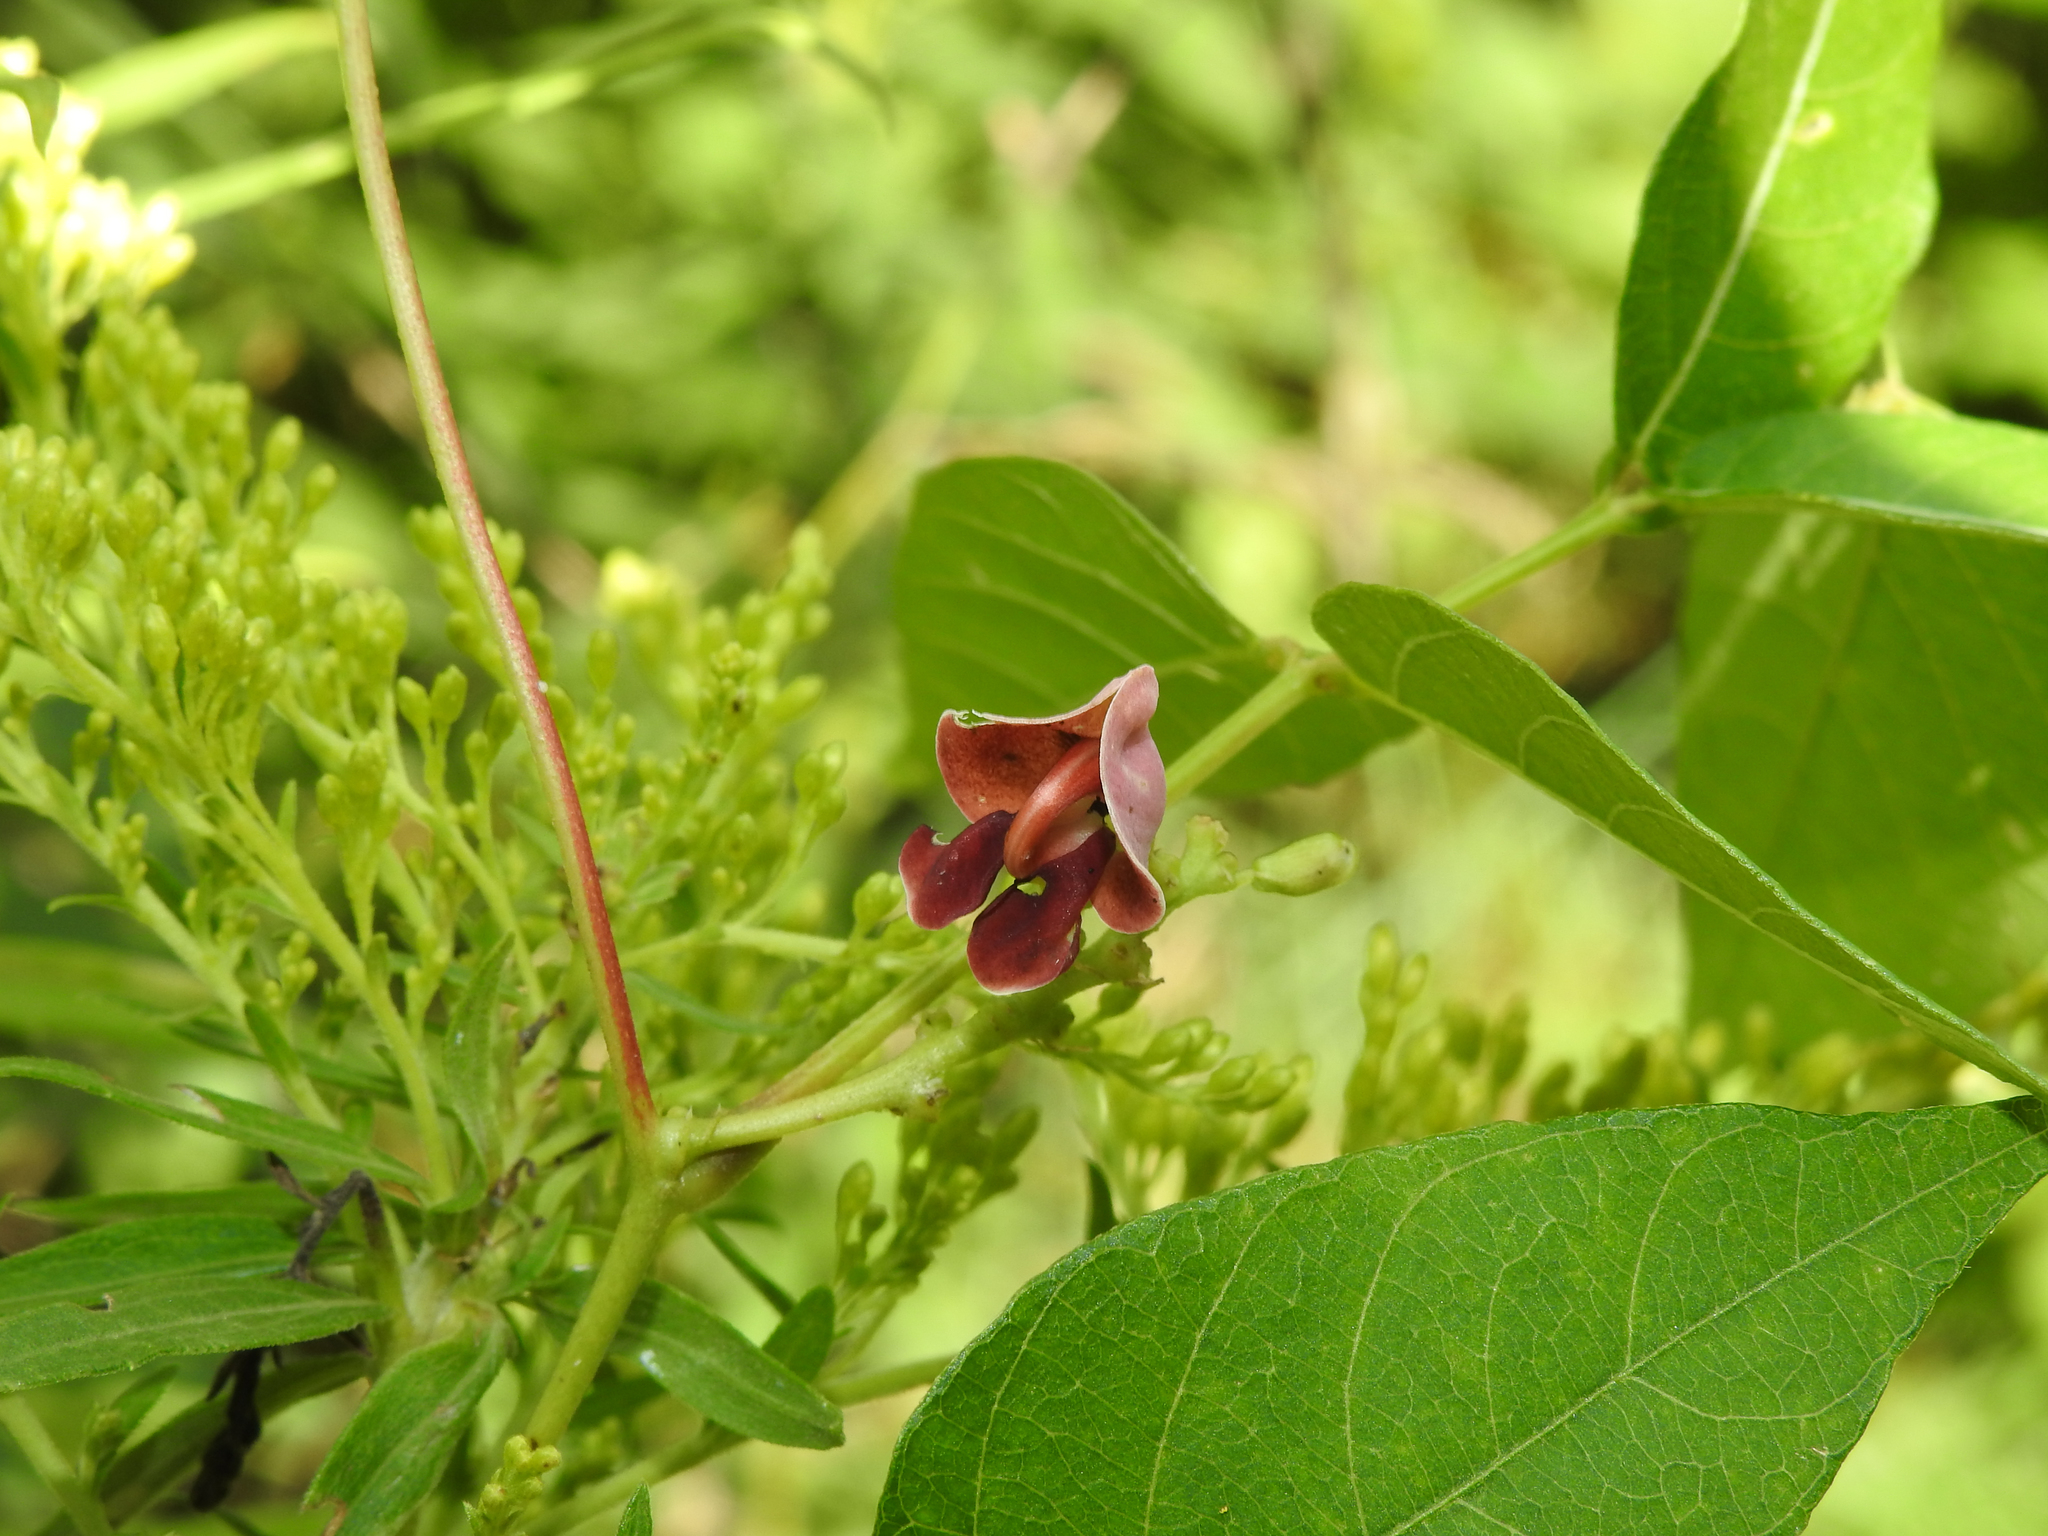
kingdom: Plantae
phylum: Tracheophyta
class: Magnoliopsida
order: Fabales
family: Fabaceae
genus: Apios
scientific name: Apios americana
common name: American potato-bean
